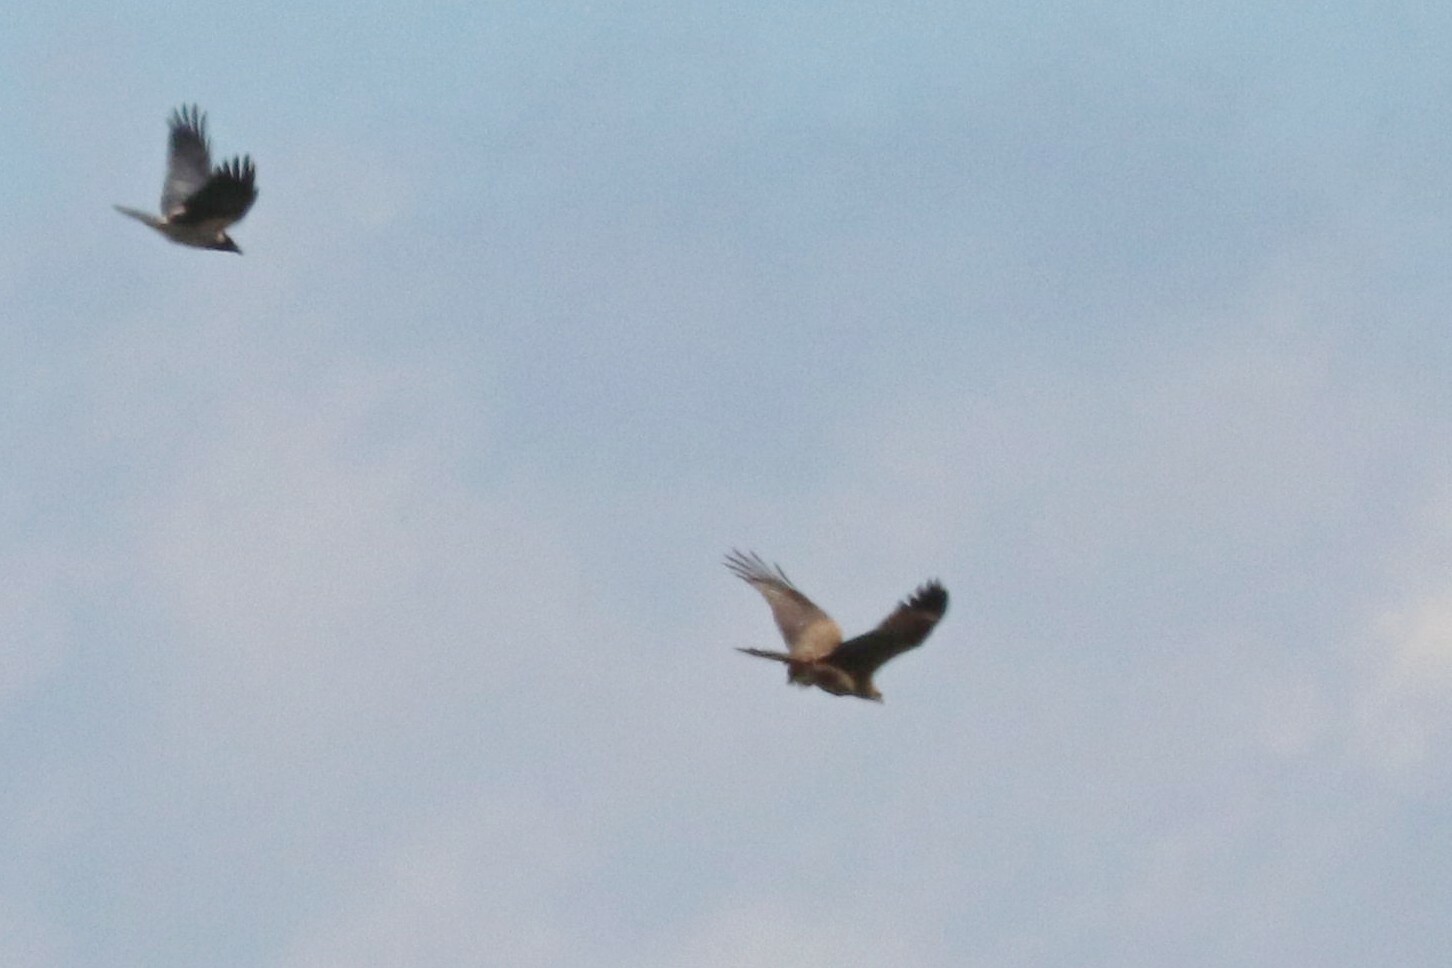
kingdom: Animalia
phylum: Chordata
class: Aves
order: Accipitriformes
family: Accipitridae
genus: Milvus
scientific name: Milvus migrans
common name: Black kite
